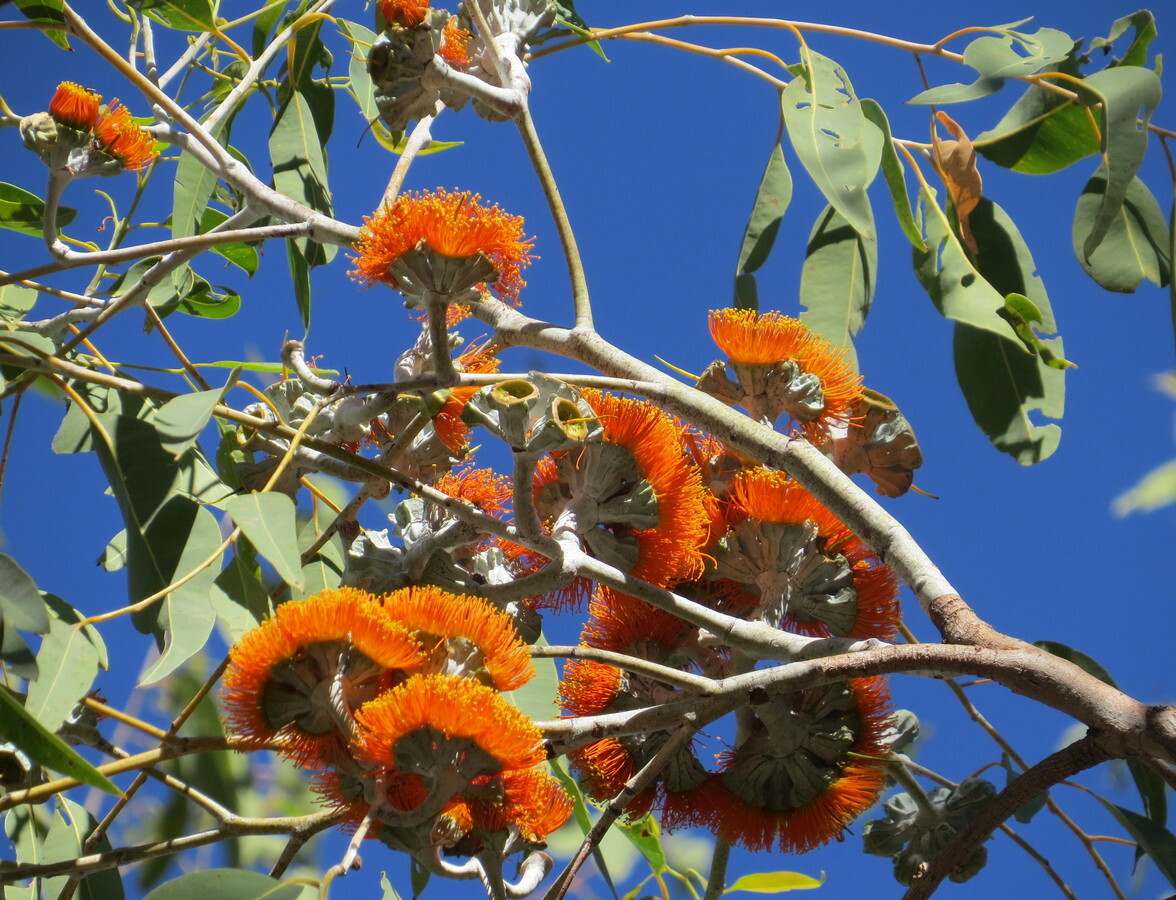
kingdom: Plantae
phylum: Tracheophyta
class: Magnoliopsida
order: Myrtales
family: Myrtaceae
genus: Eucalyptus
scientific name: Eucalyptus miniata
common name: Darwin-woollybutt
